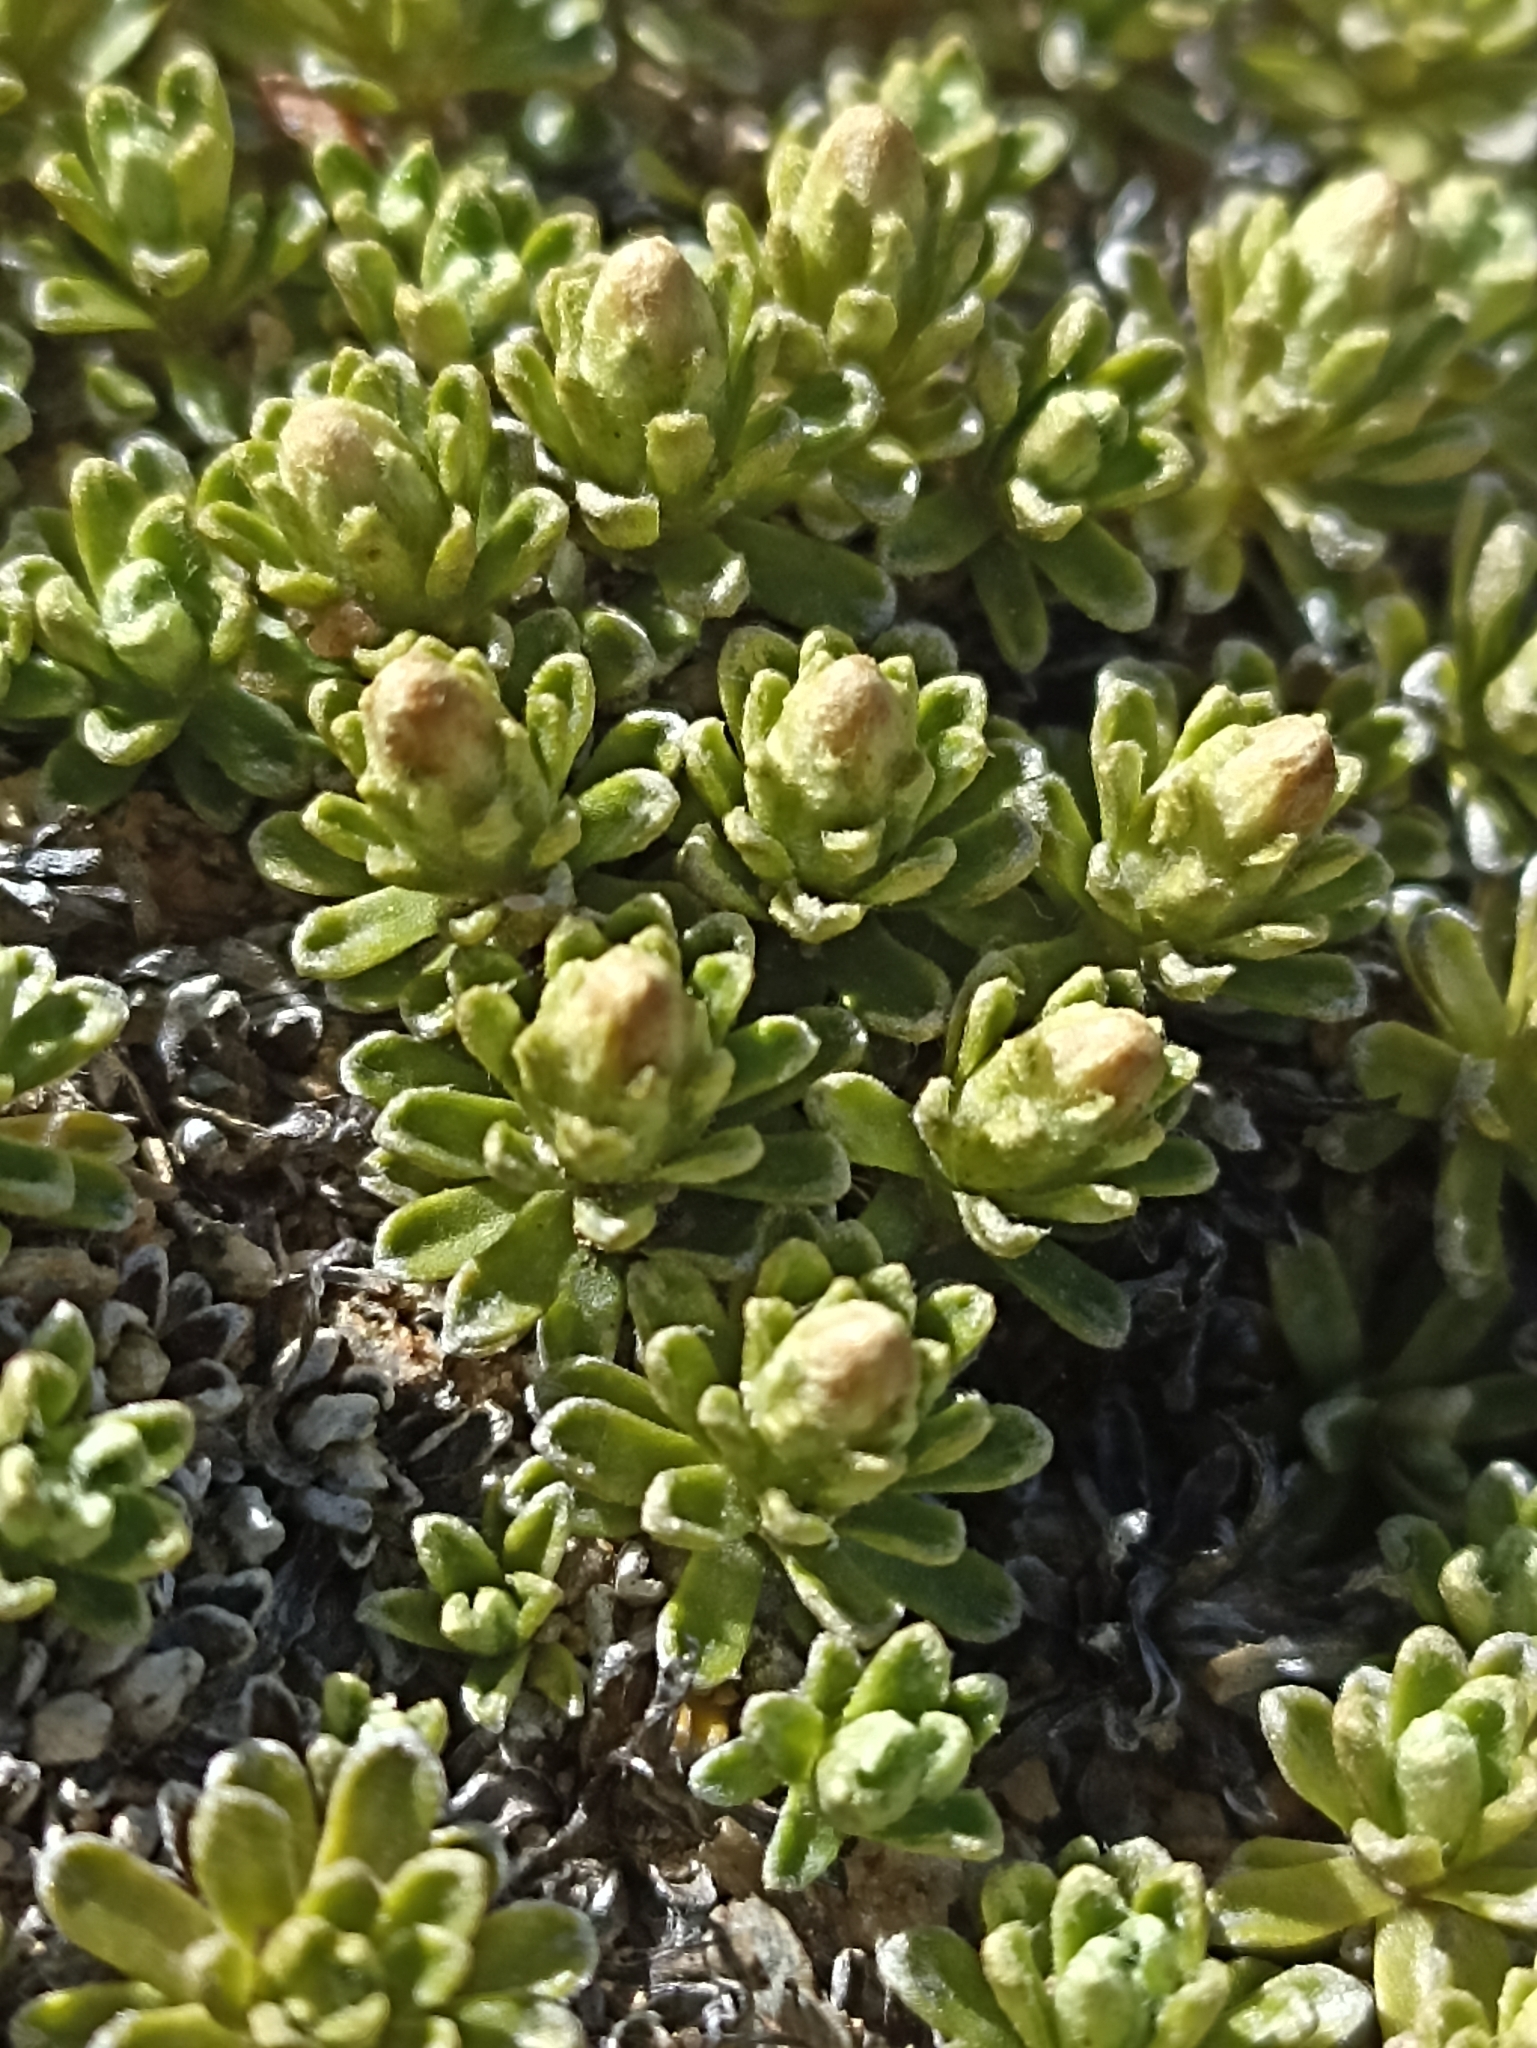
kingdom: Plantae
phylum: Tracheophyta
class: Magnoliopsida
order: Asterales
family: Asteraceae
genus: Raoulia
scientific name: Raoulia subsericea
